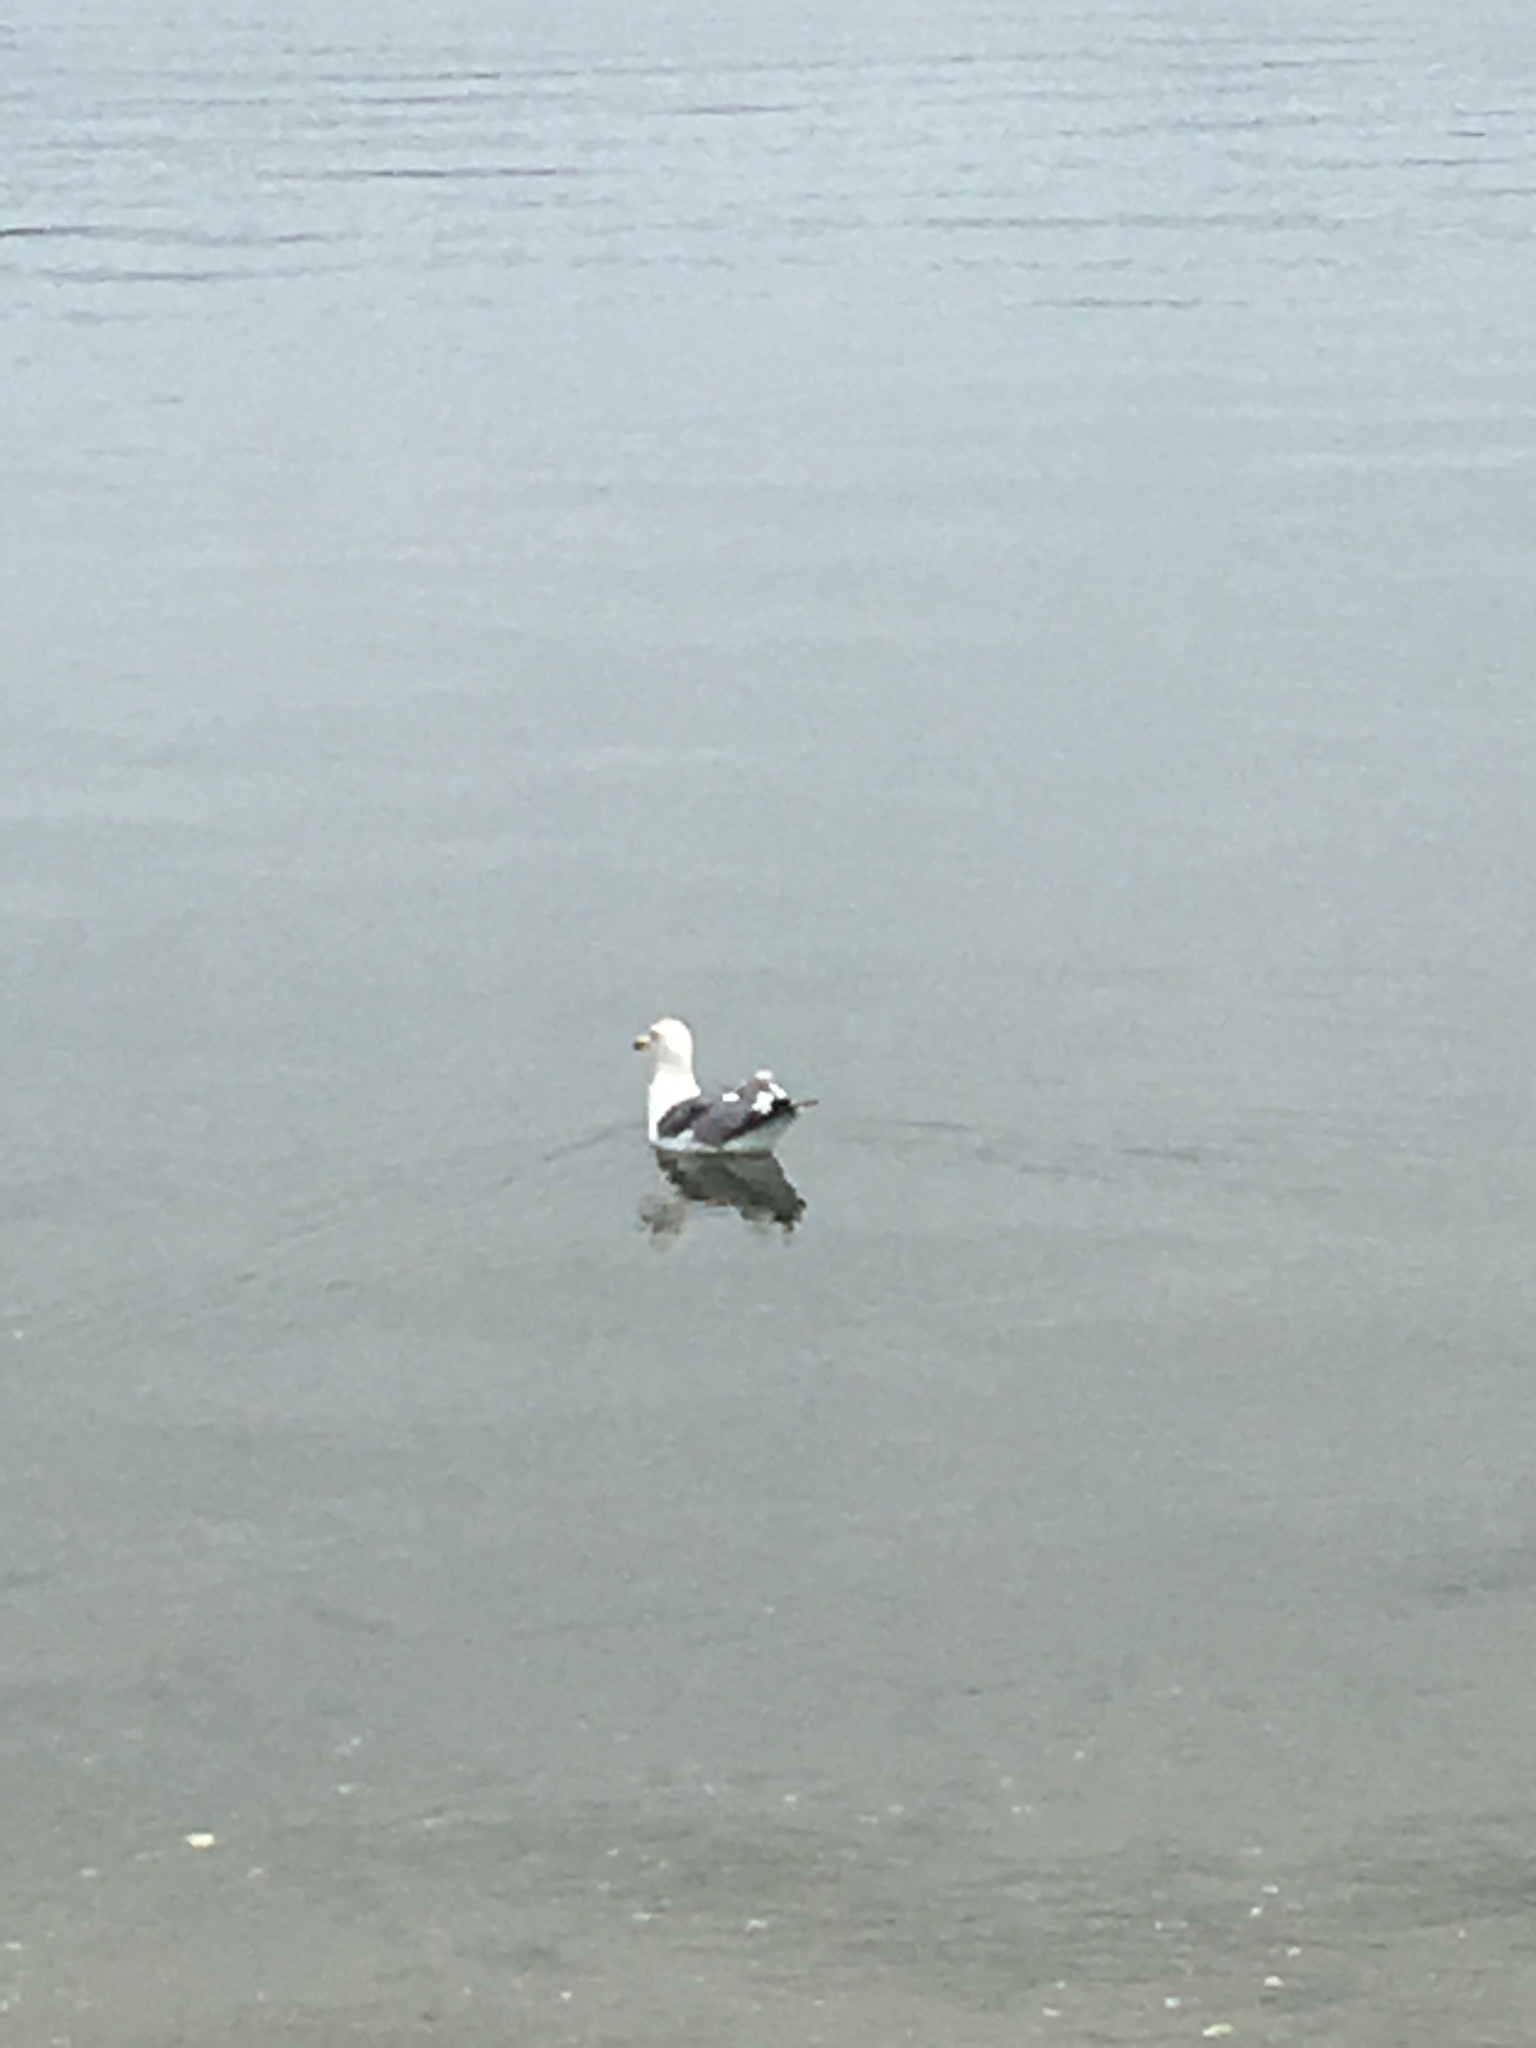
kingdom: Animalia
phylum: Chordata
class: Aves
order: Charadriiformes
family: Laridae
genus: Larus
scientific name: Larus delawarensis
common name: Ring-billed gull
